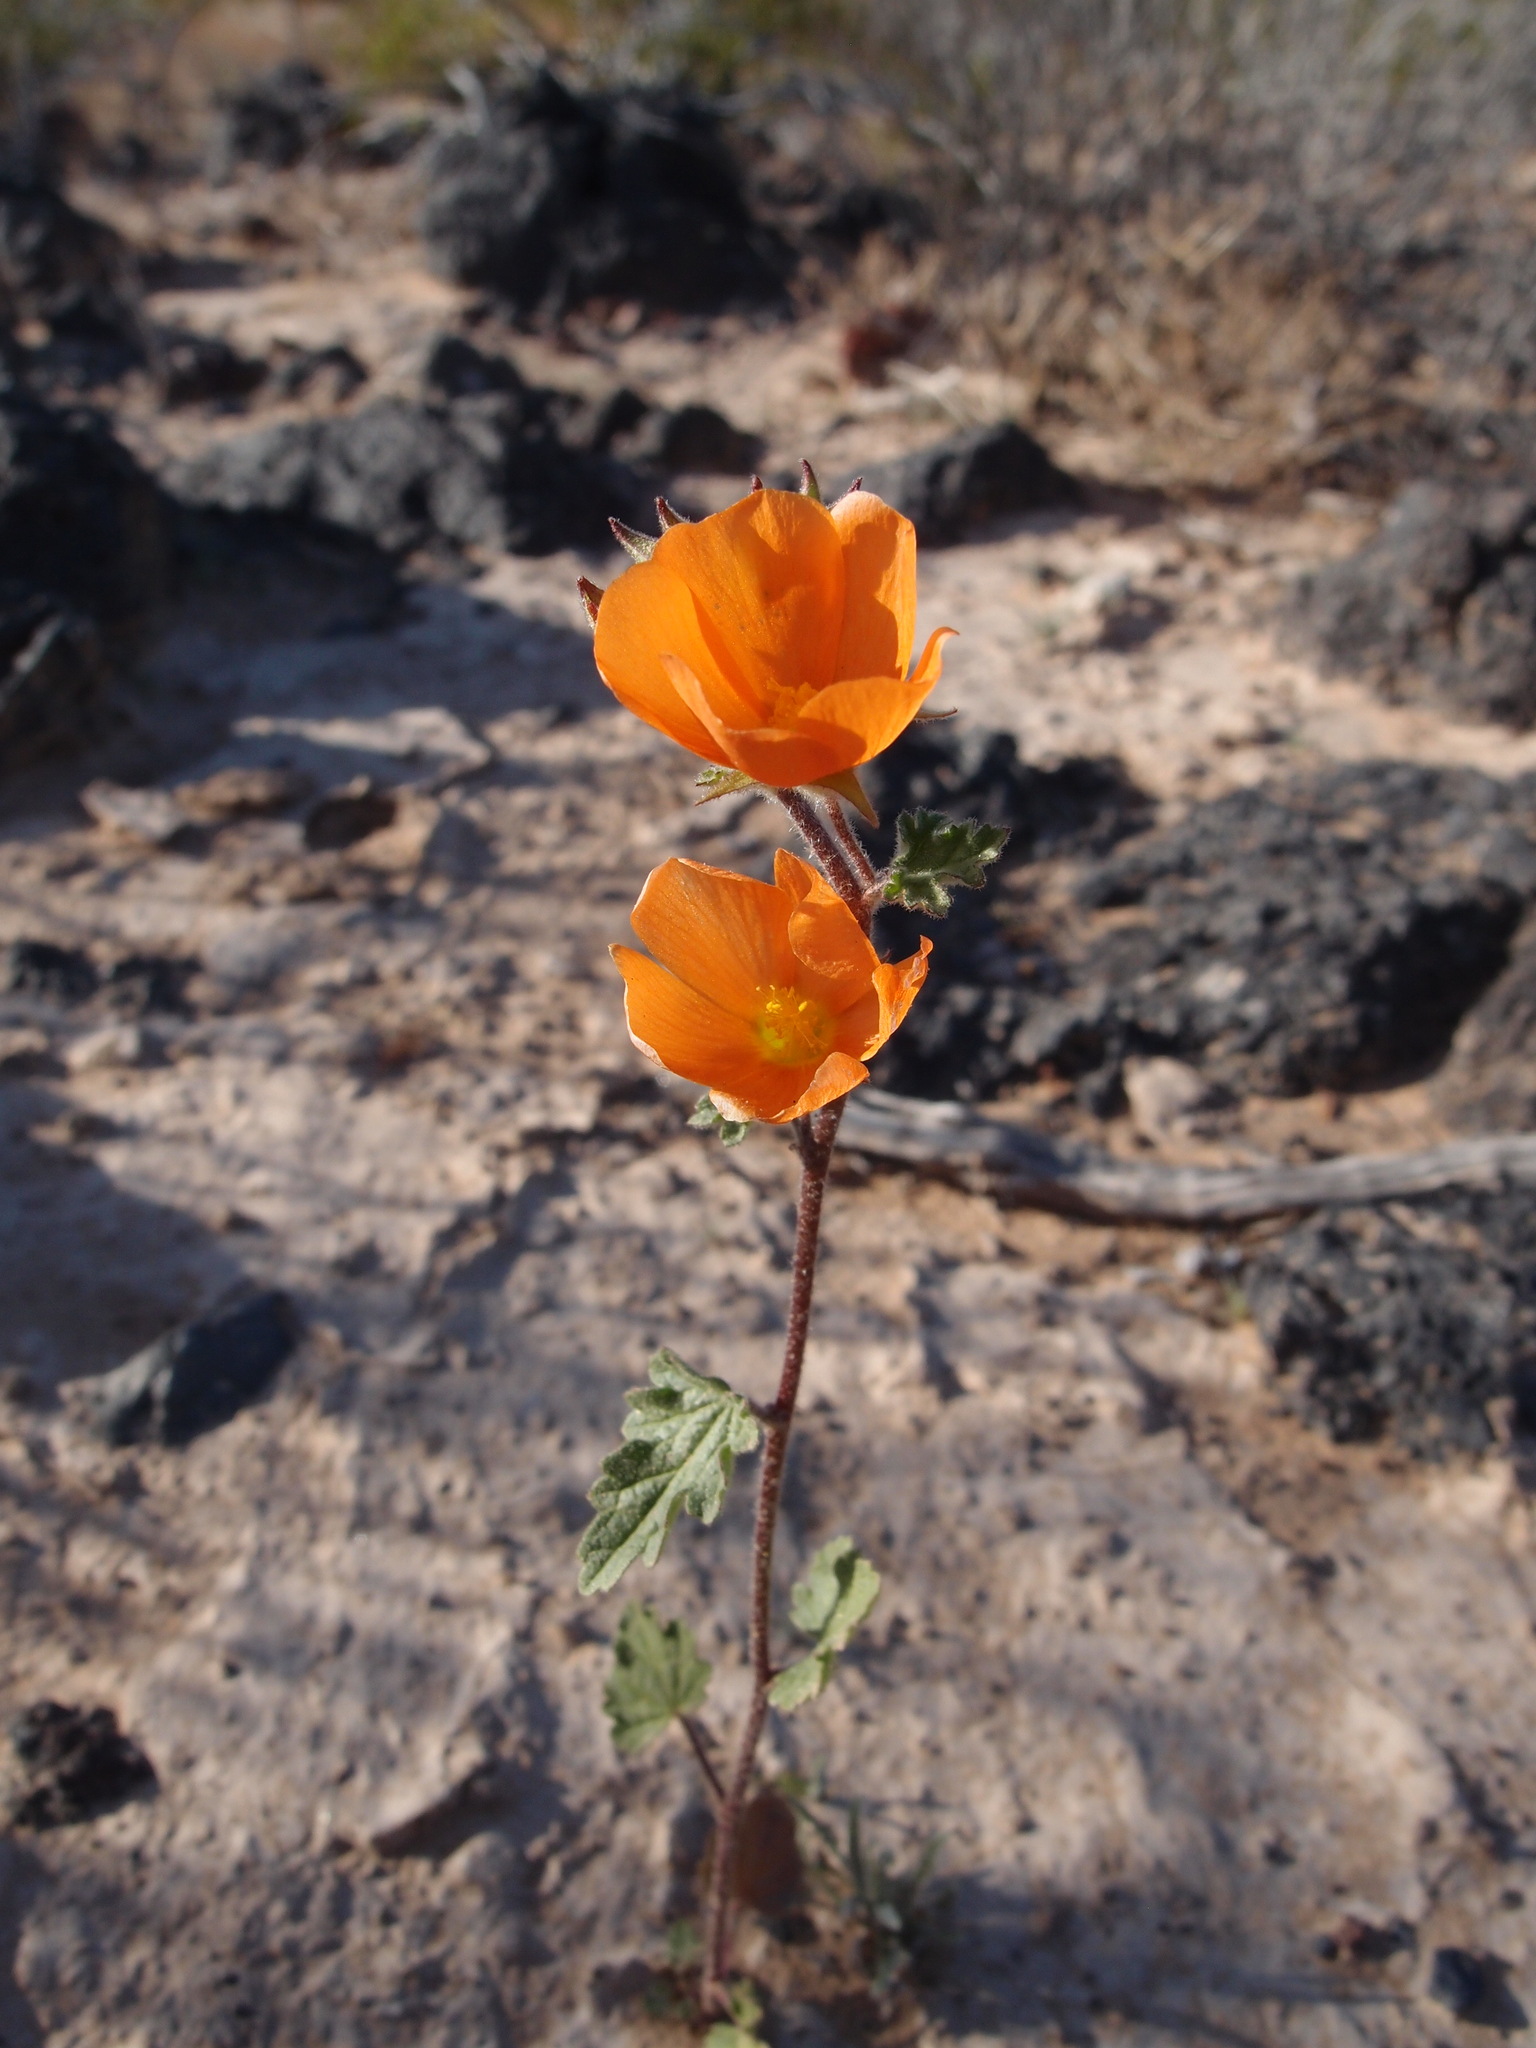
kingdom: Plantae
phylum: Tracheophyta
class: Magnoliopsida
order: Malvales
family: Malvaceae
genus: Sphaeralcea
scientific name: Sphaeralcea coulteri
